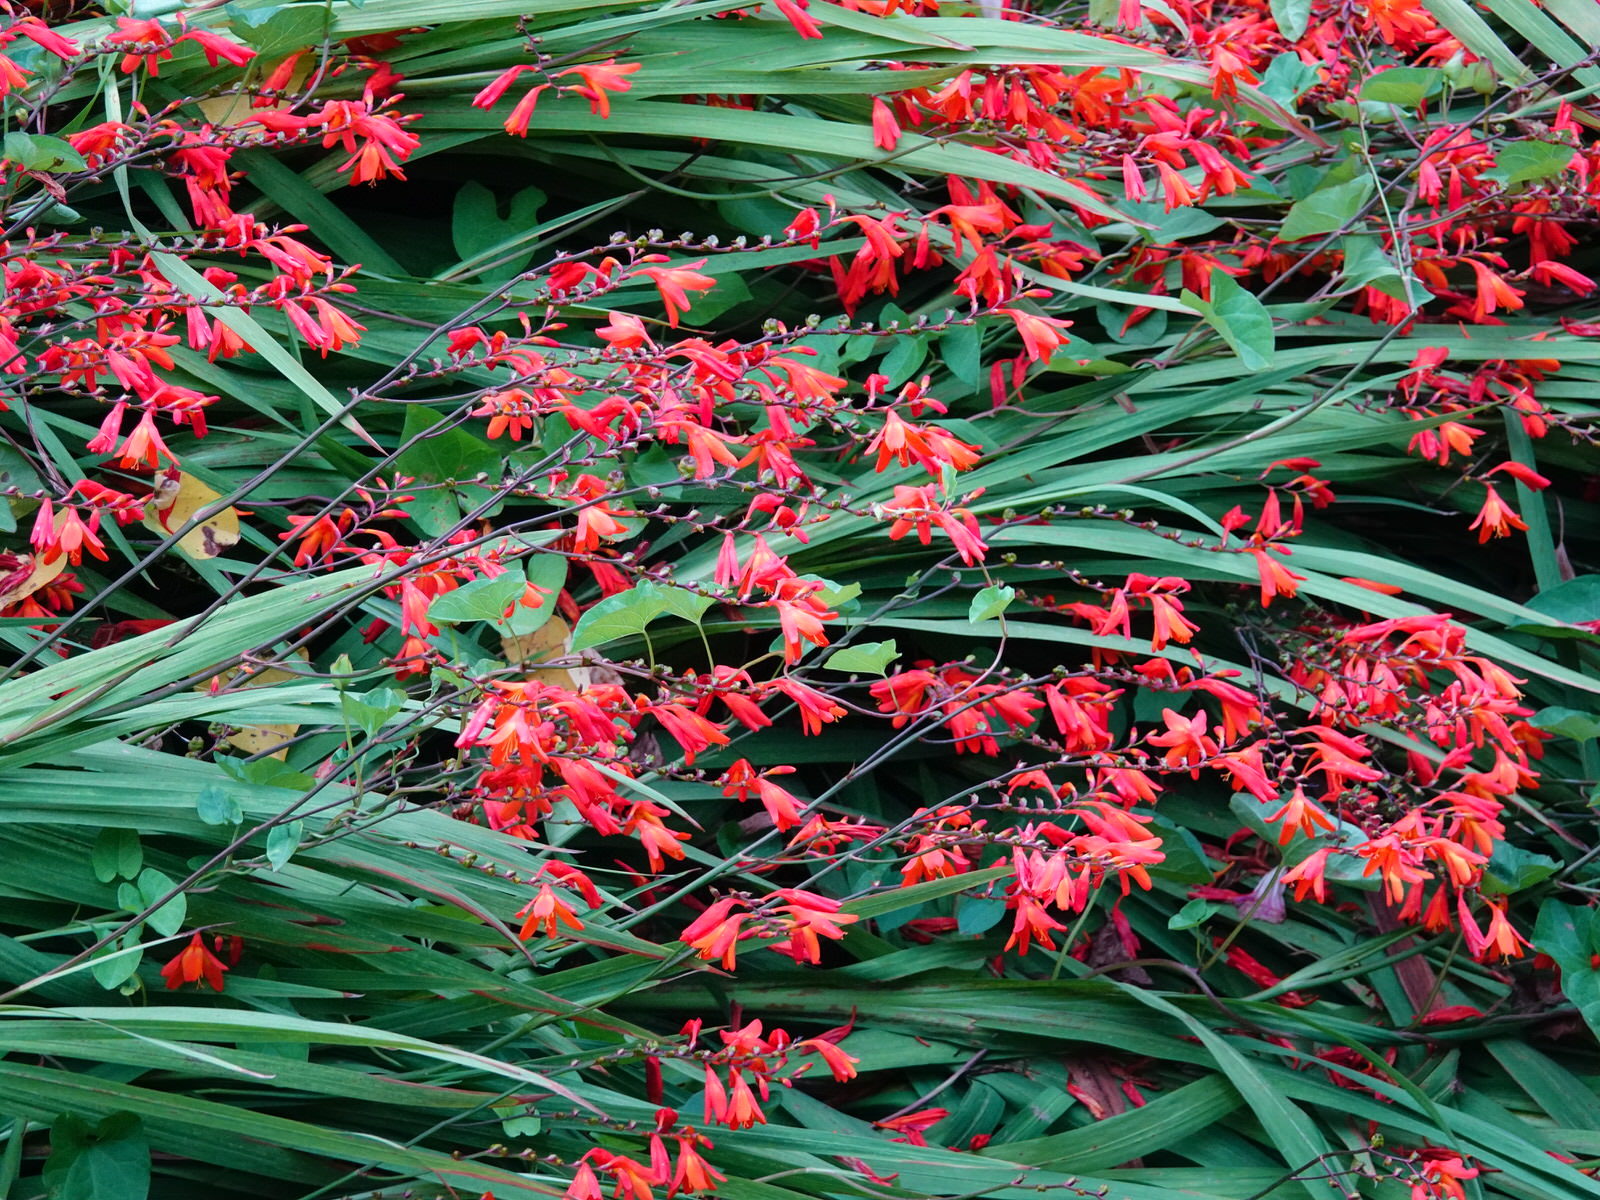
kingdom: Plantae
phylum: Tracheophyta
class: Liliopsida
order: Asparagales
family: Iridaceae
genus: Crocosmia
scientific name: Crocosmia crocosmiiflora
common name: Montbretia
